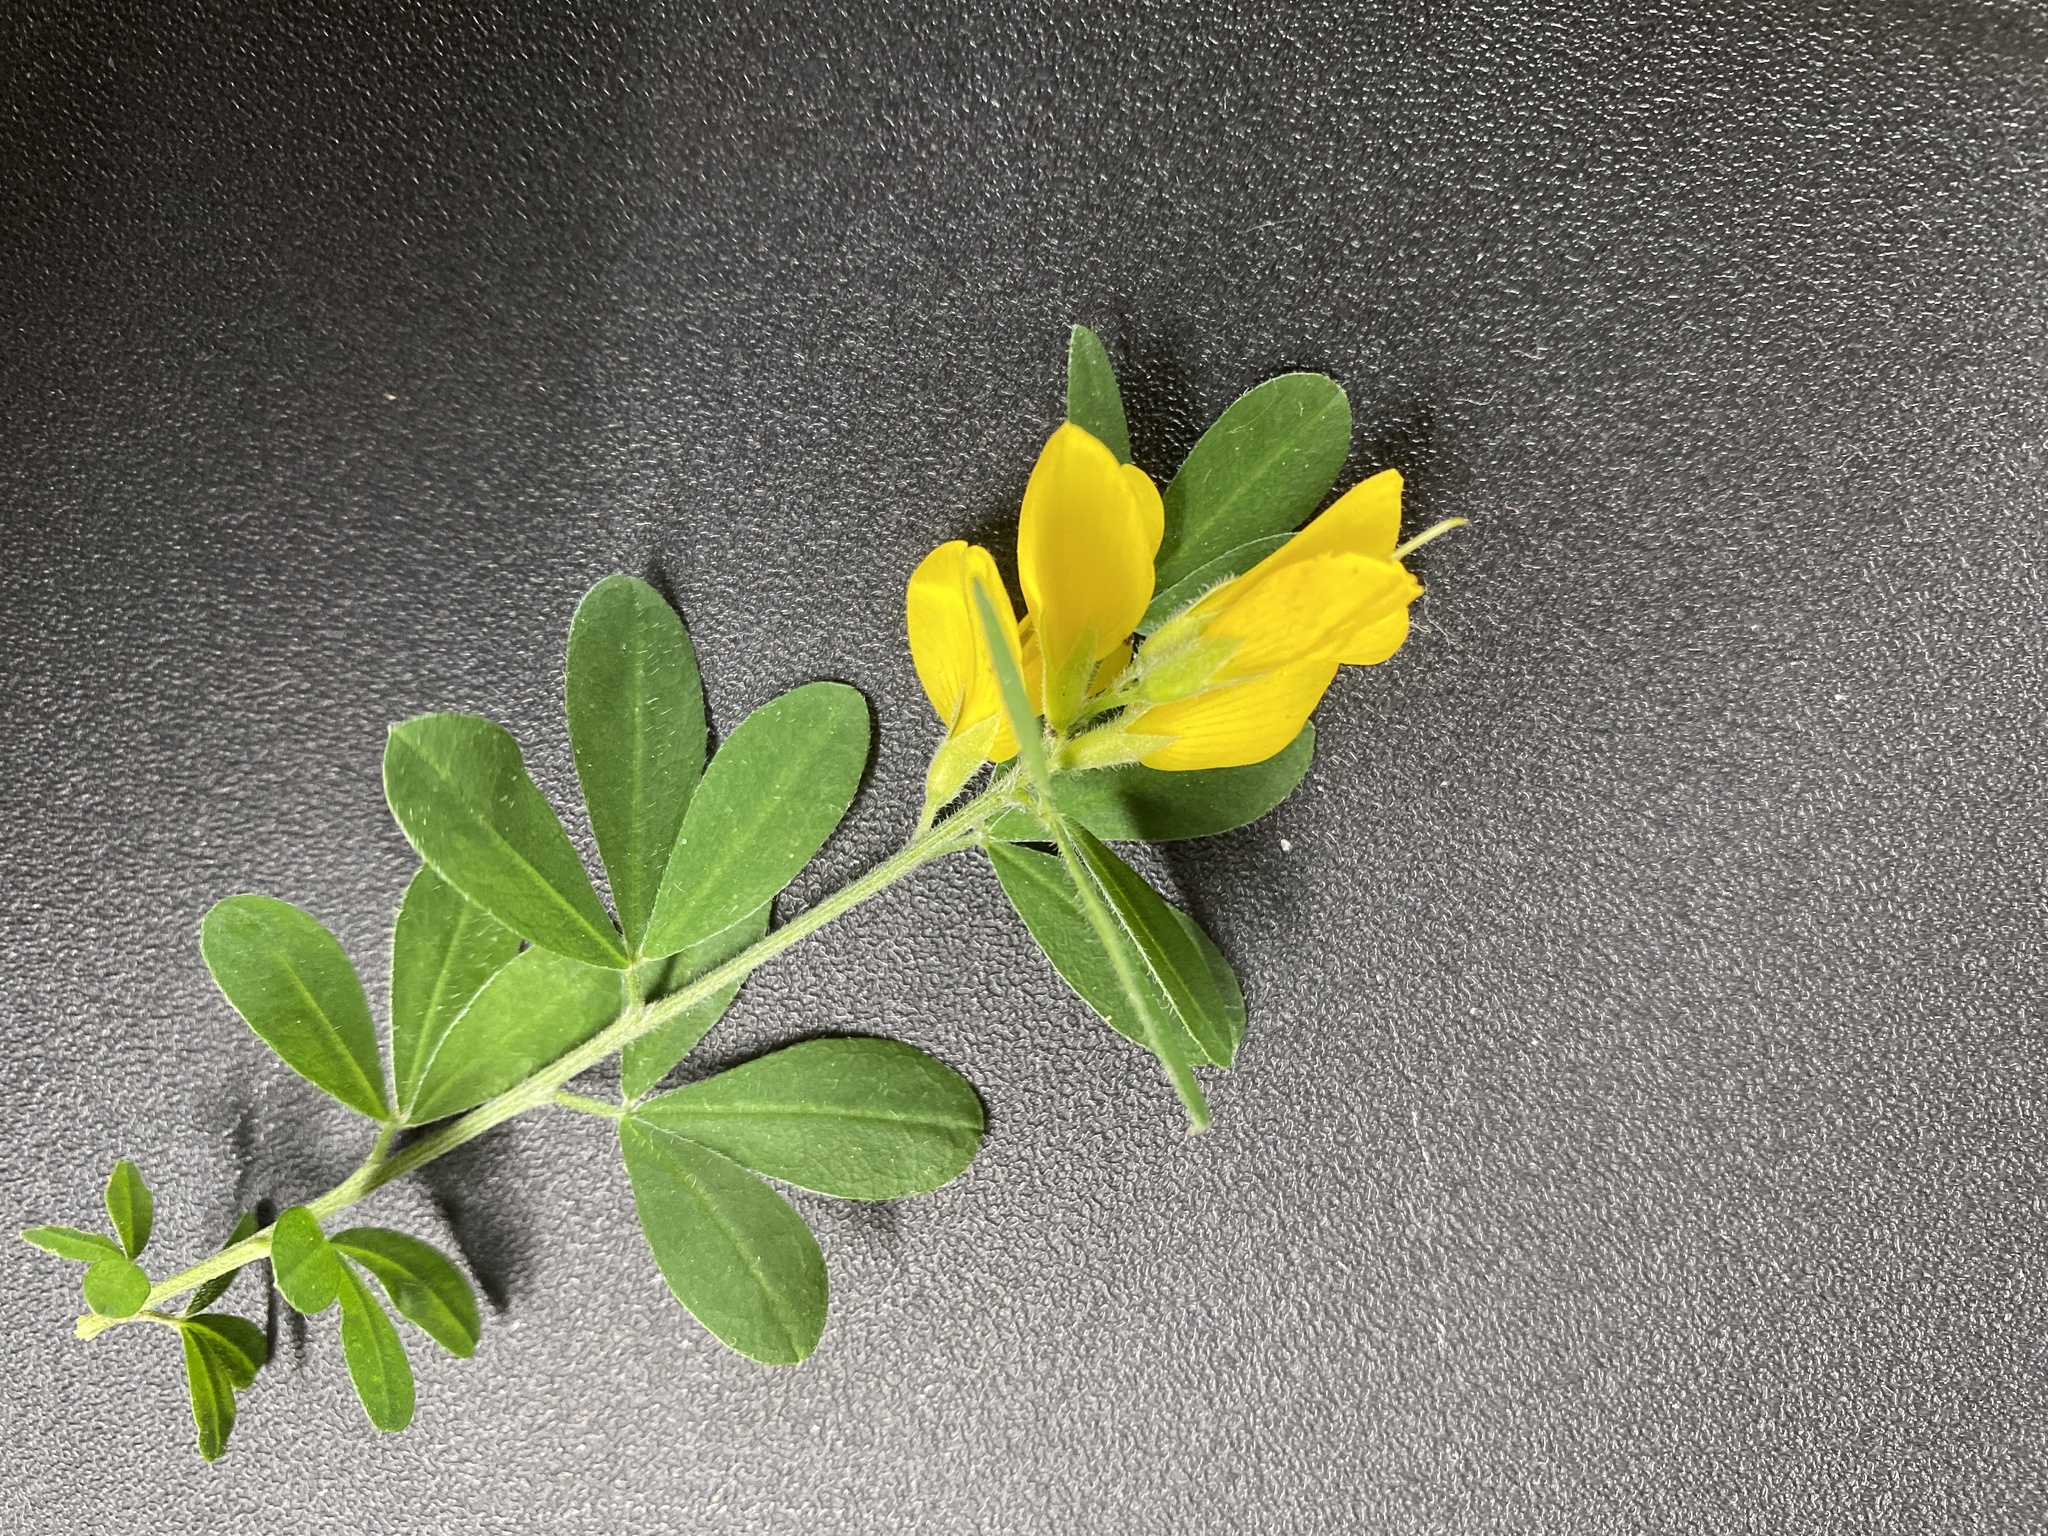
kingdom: Plantae
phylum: Tracheophyta
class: Magnoliopsida
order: Fabales
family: Fabaceae
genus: Genista
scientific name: Genista monspessulana
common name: Montpellier broom
